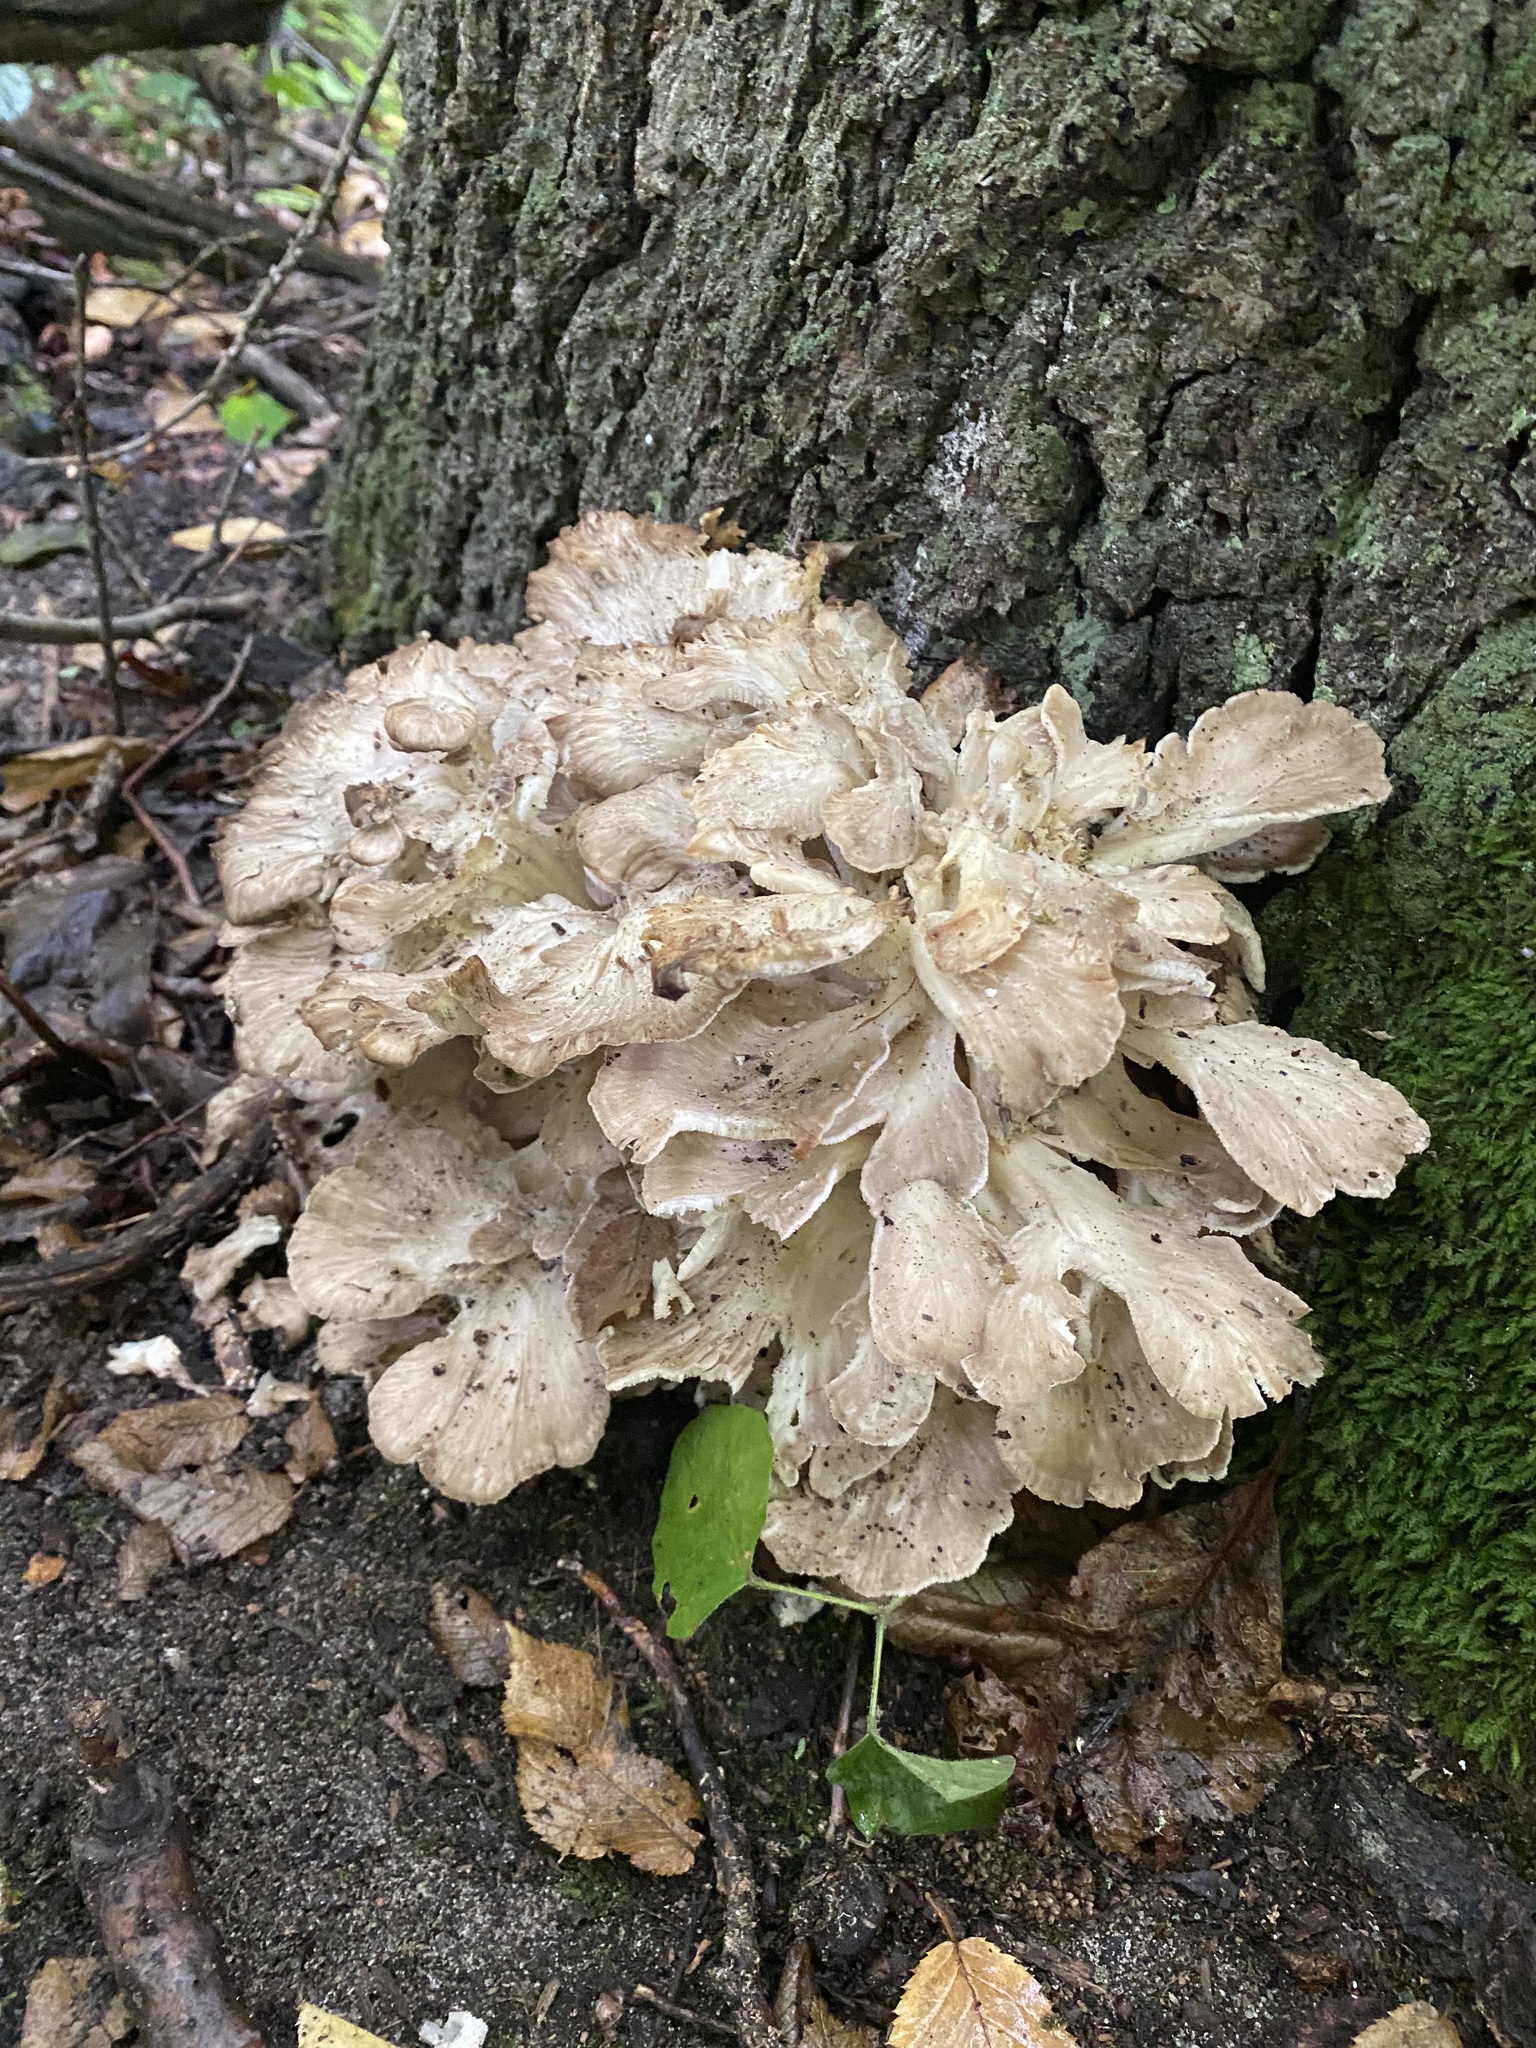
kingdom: Fungi
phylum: Basidiomycota
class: Agaricomycetes
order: Polyporales
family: Grifolaceae
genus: Grifola
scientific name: Grifola frondosa
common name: Hen of the woods
